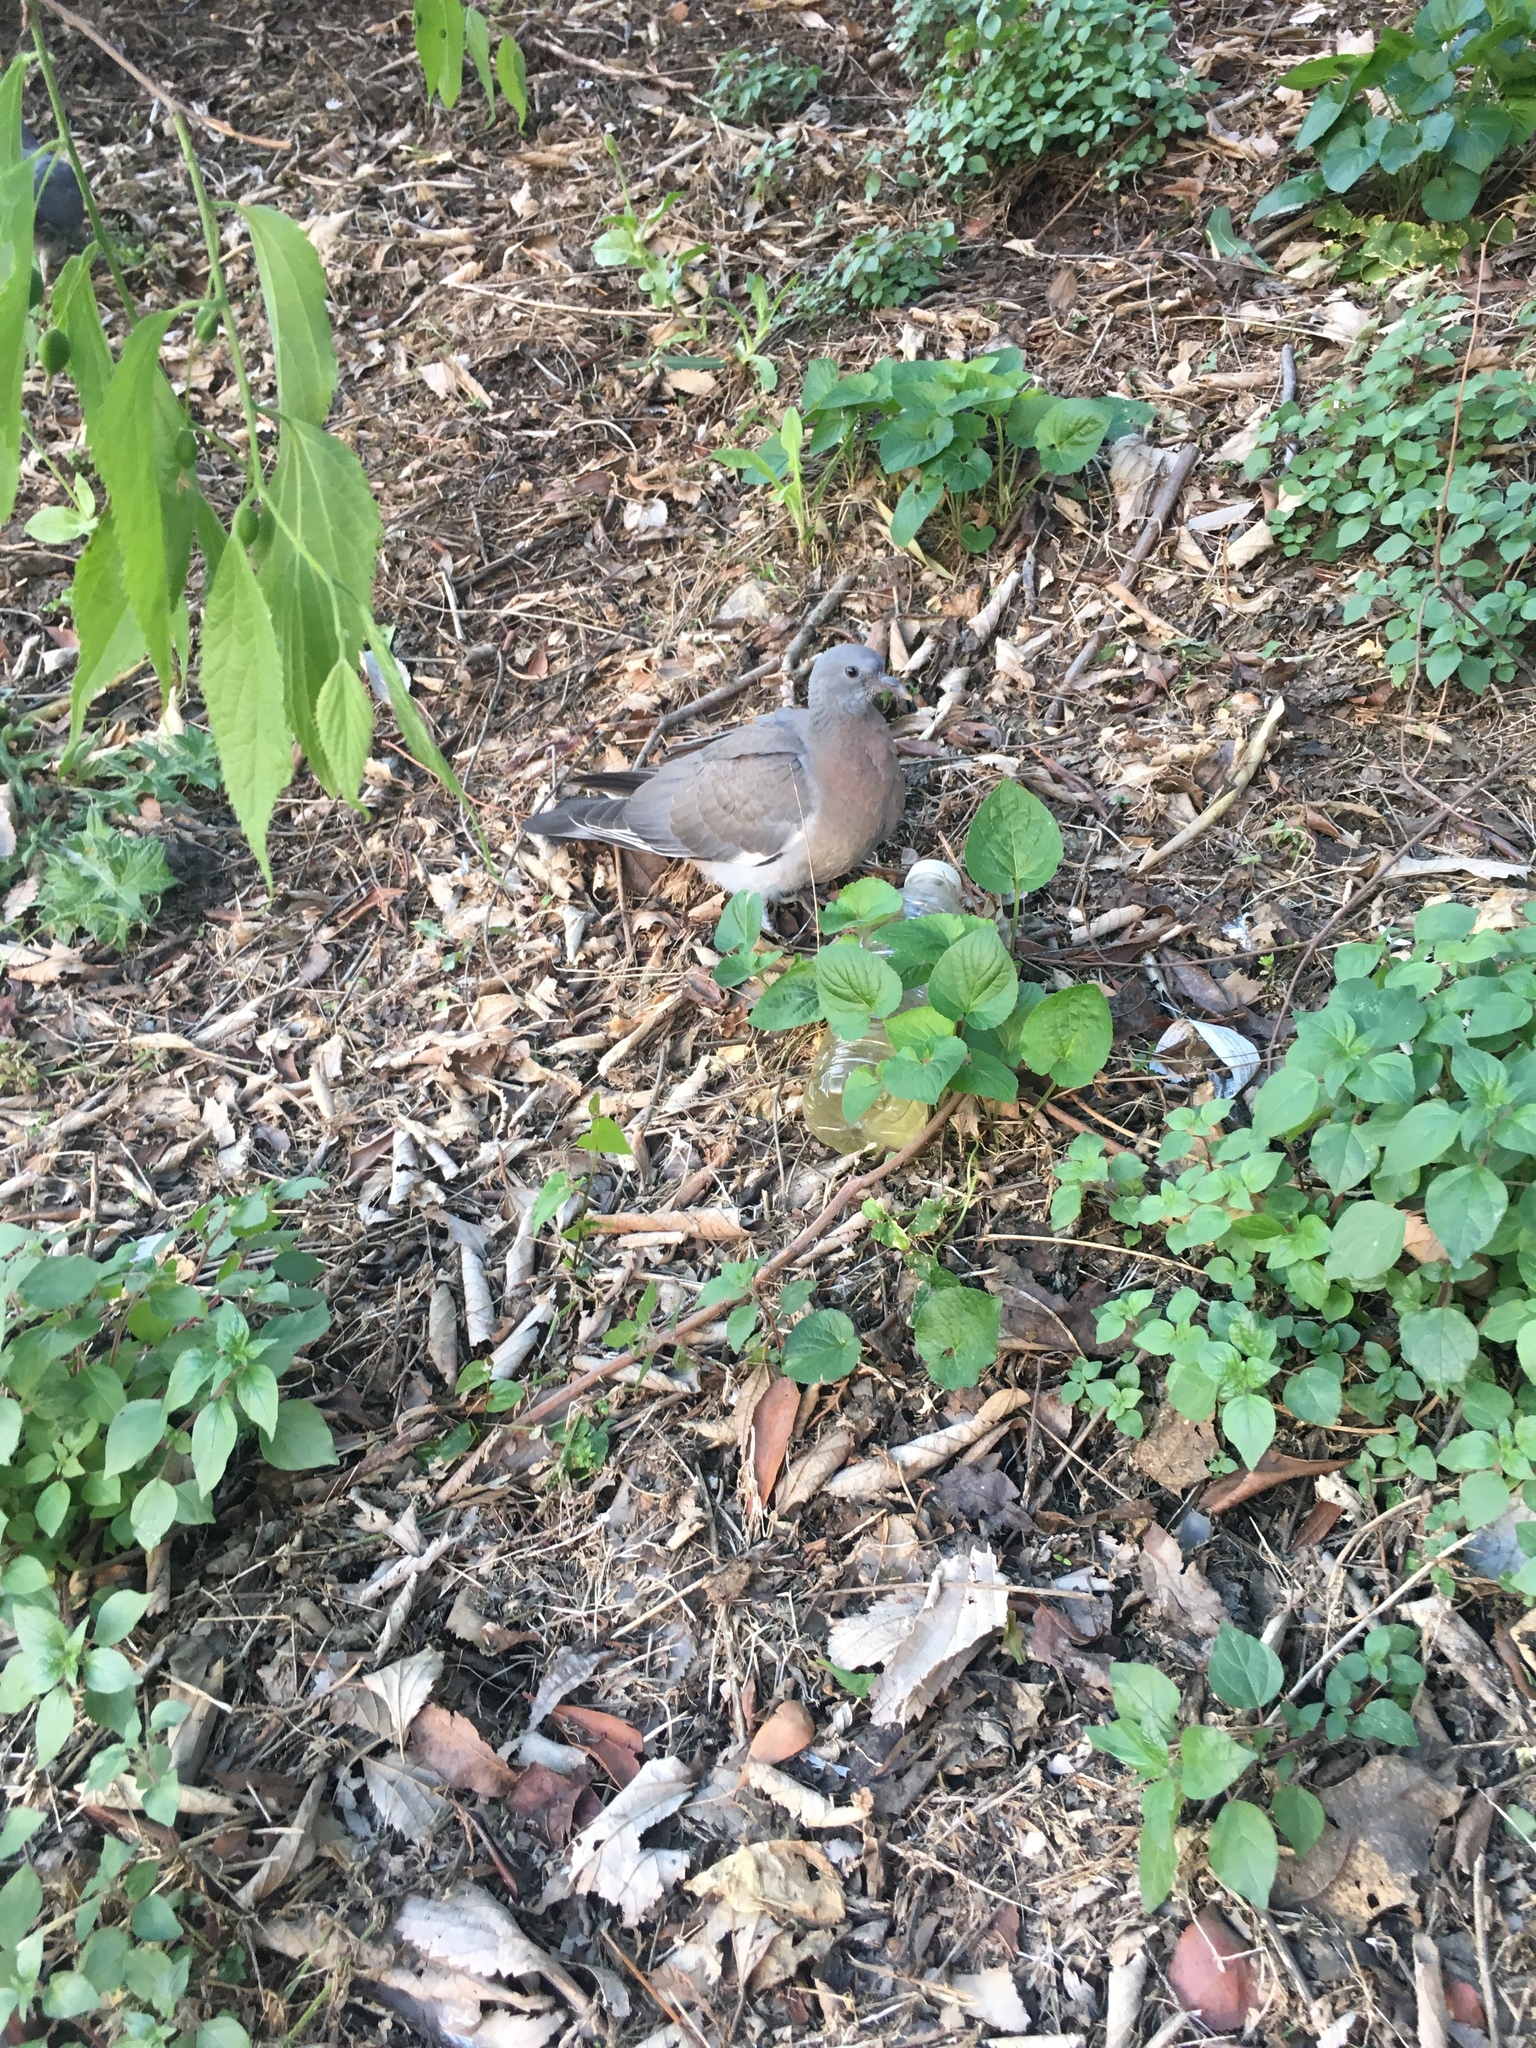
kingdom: Animalia
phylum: Chordata
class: Aves
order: Columbiformes
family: Columbidae
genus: Columba
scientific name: Columba palumbus
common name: Common wood pigeon
